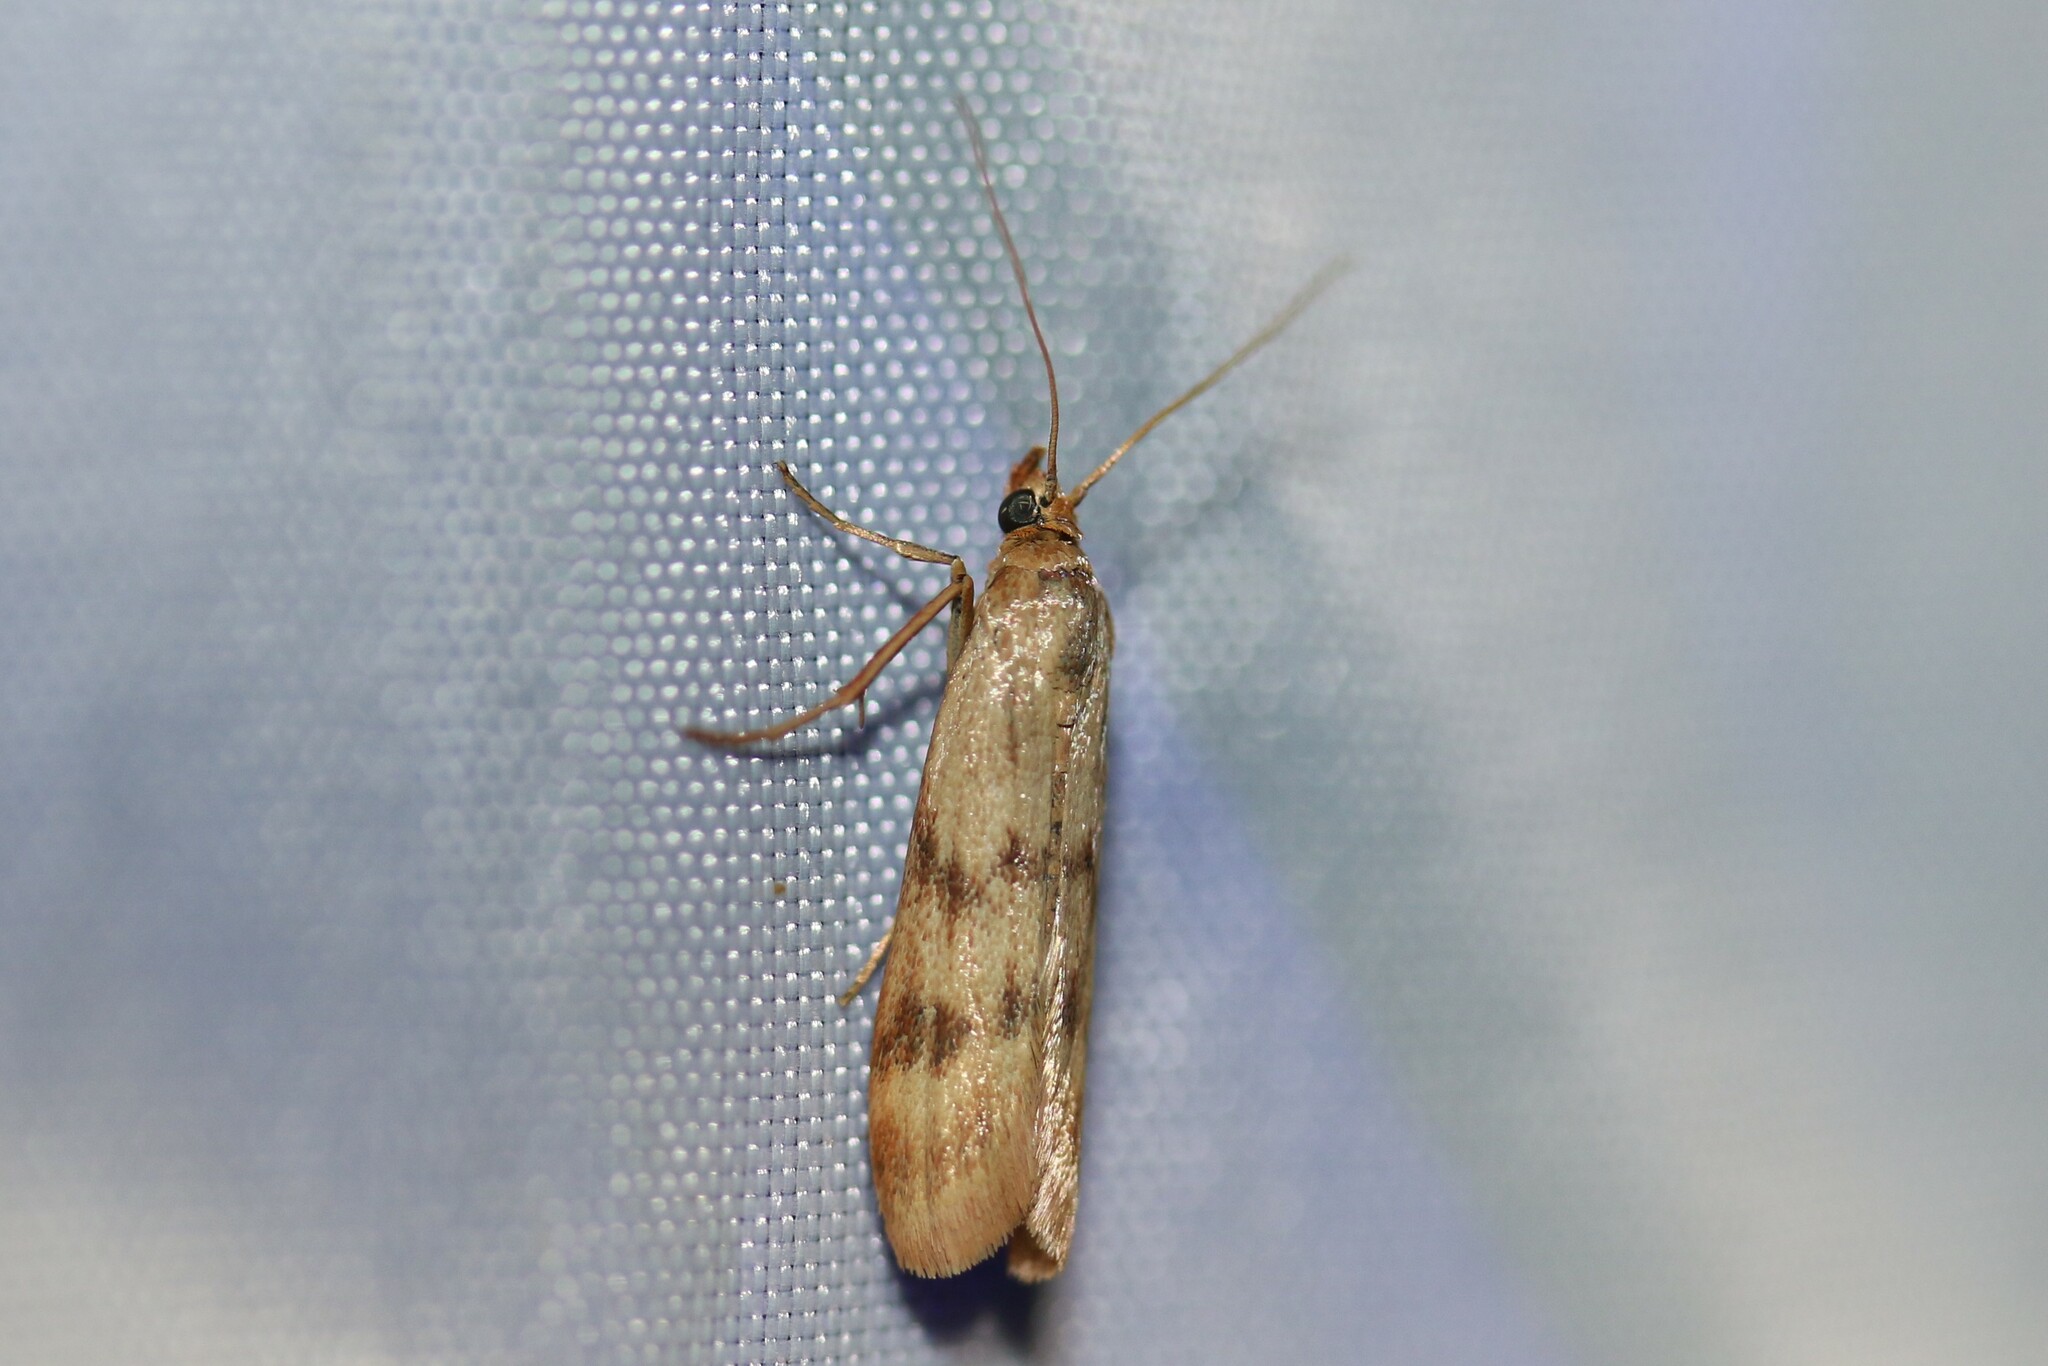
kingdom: Animalia
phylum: Arthropoda
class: Insecta
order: Lepidoptera
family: Pyralidae
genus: Homoeosoma
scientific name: Homoeosoma sinuella
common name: Twin-barred knot-horn
